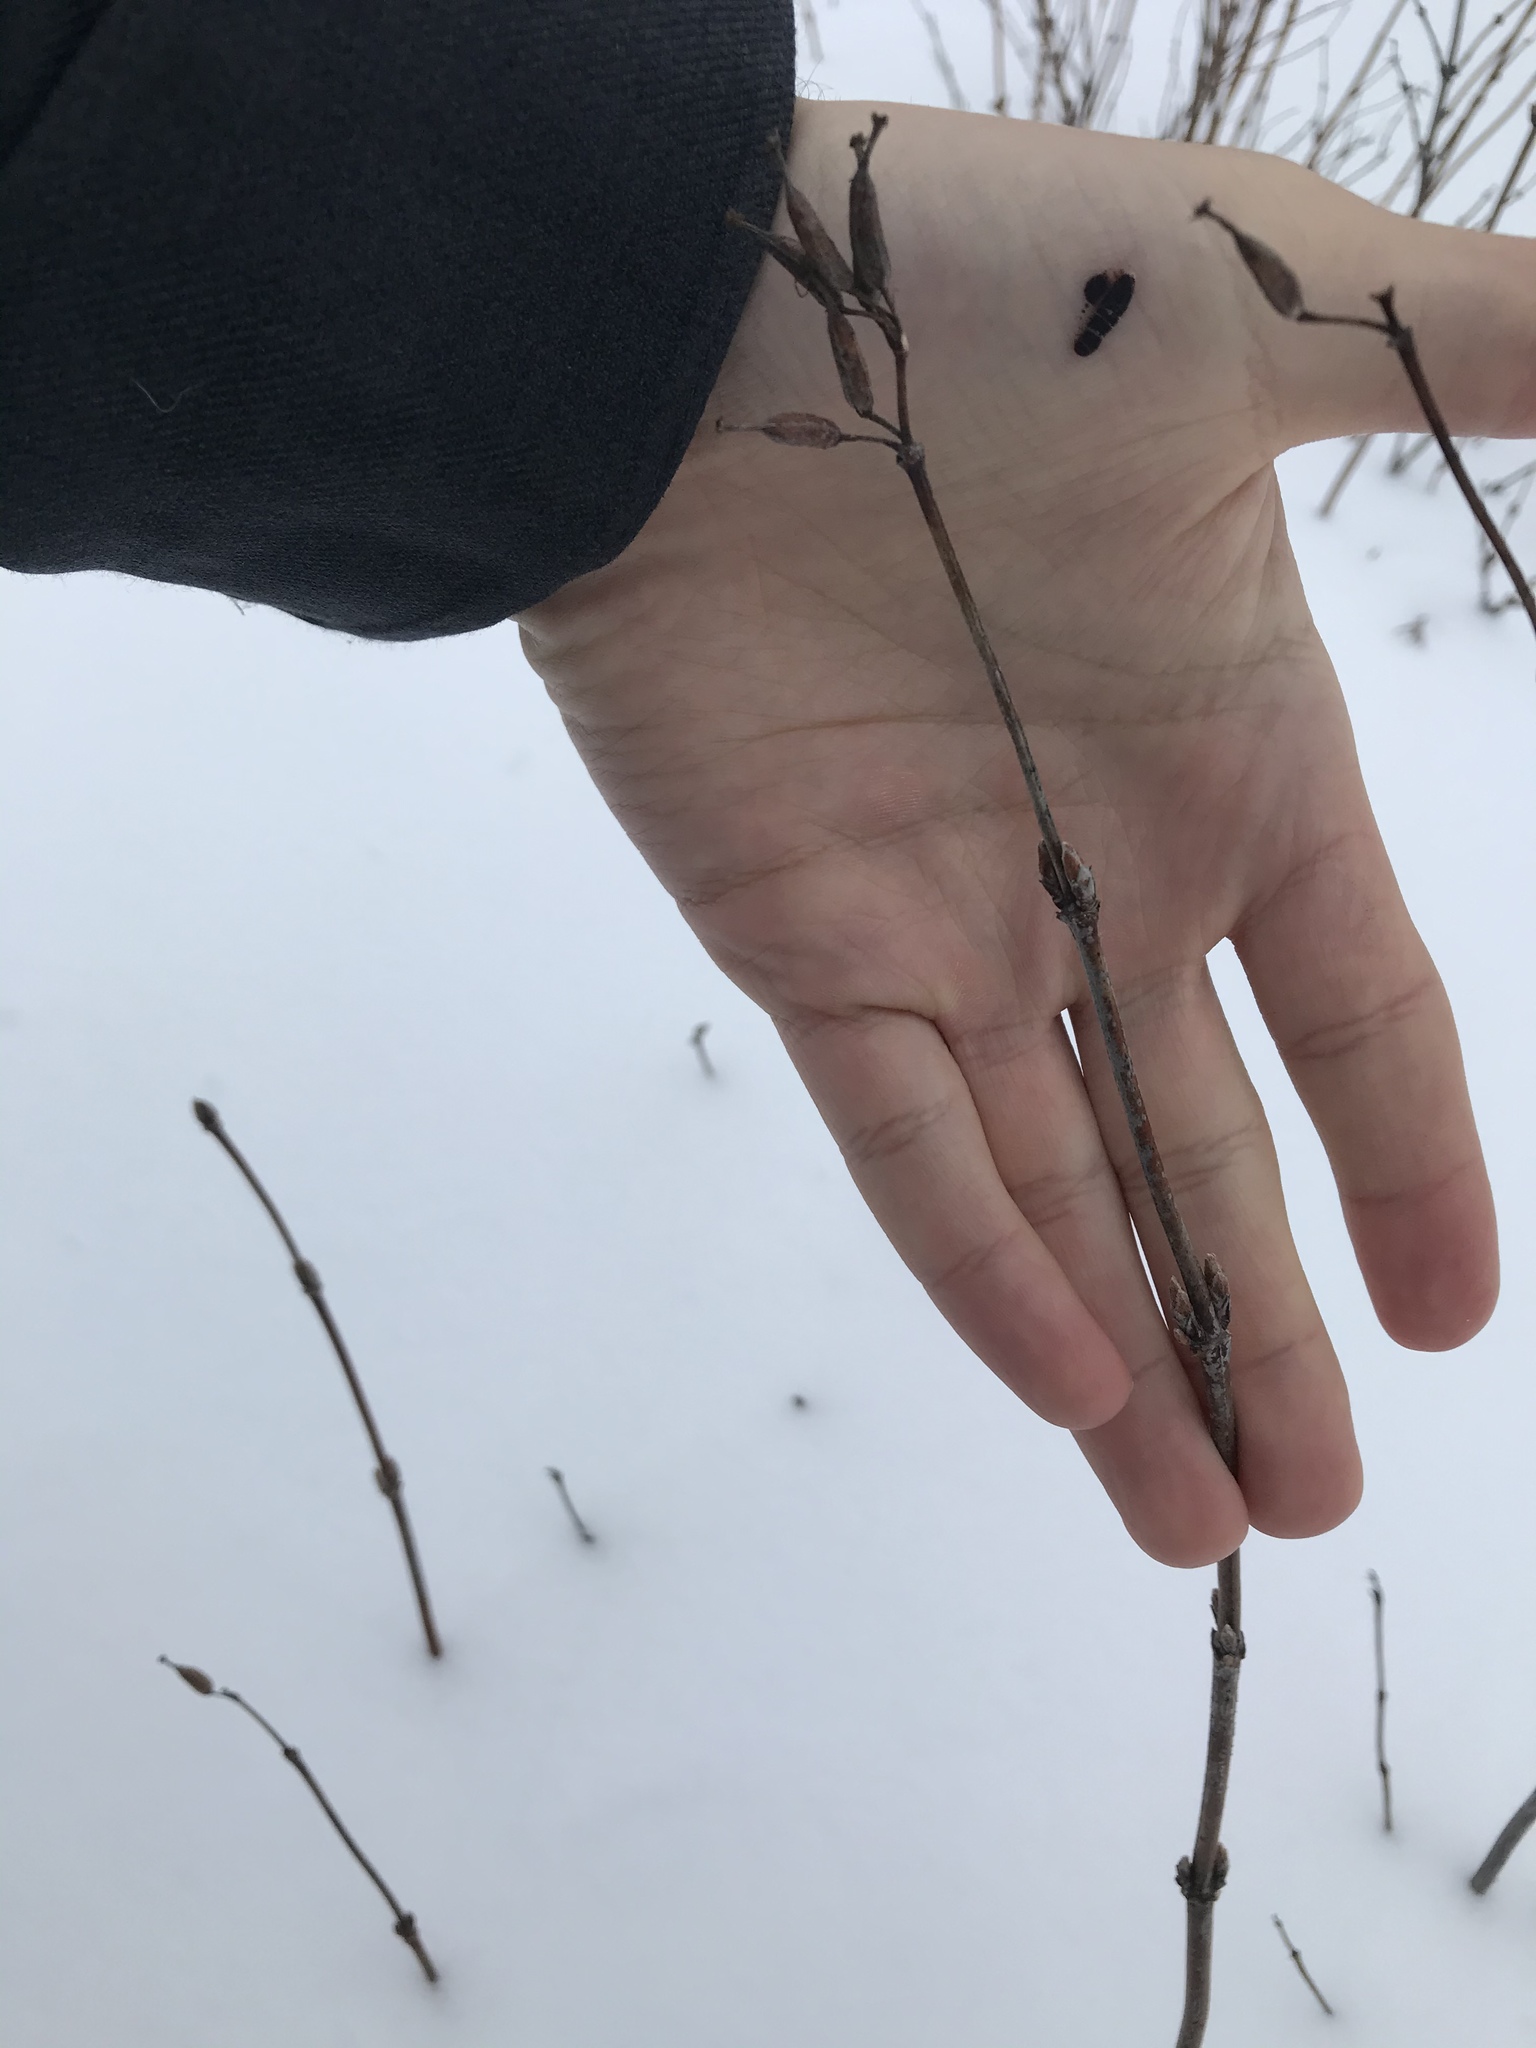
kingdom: Plantae
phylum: Tracheophyta
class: Magnoliopsida
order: Dipsacales
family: Caprifoliaceae
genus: Diervilla
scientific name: Diervilla lonicera
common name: Bush-honeysuckle
